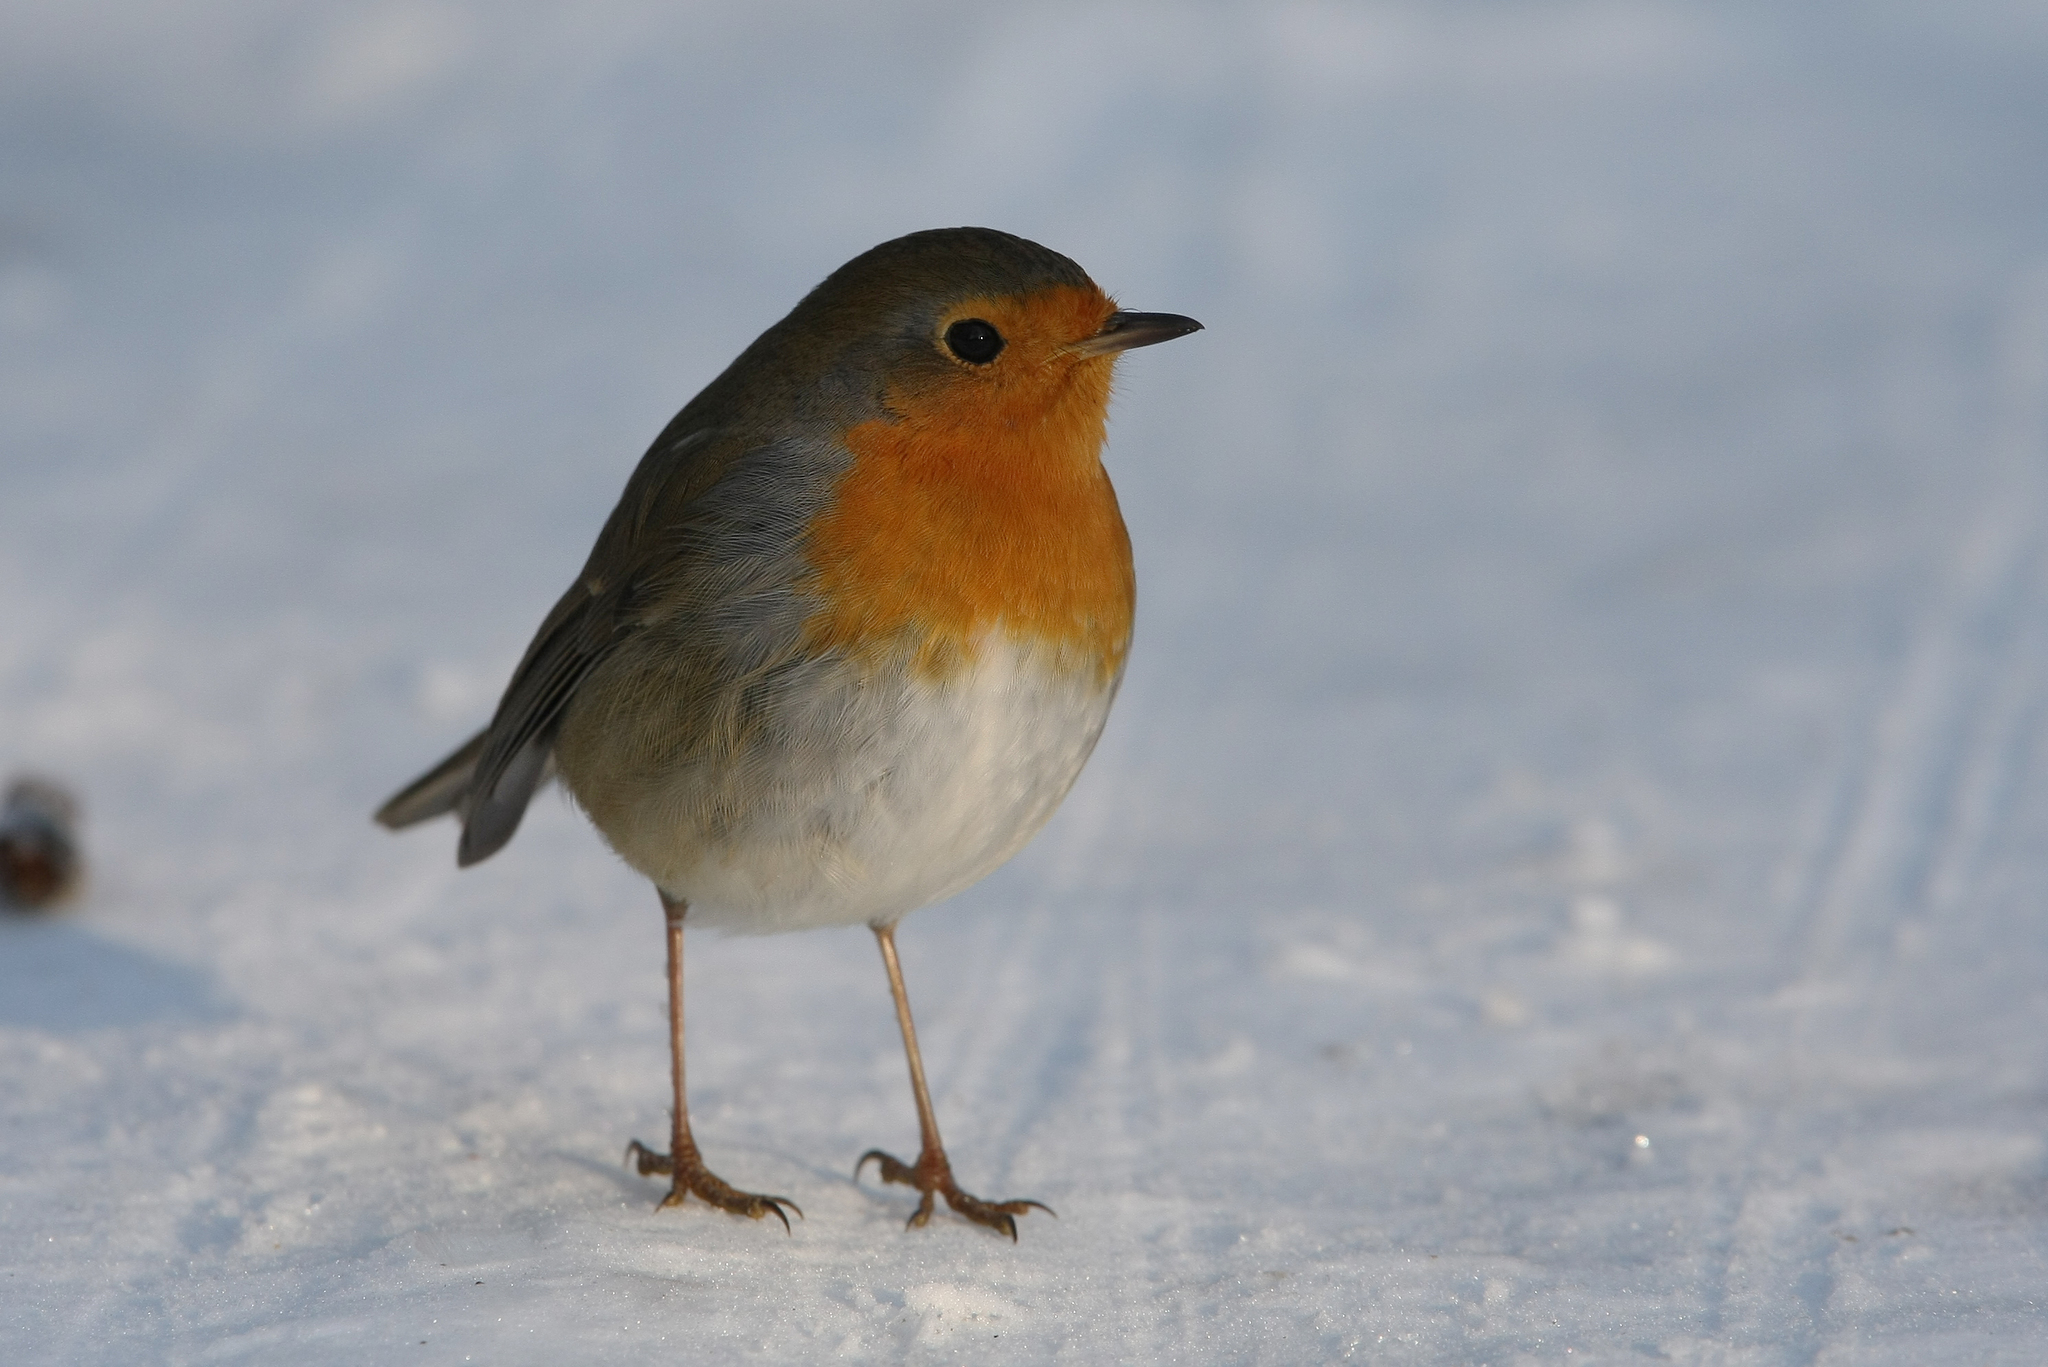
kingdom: Animalia
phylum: Chordata
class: Aves
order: Passeriformes
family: Muscicapidae
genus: Erithacus
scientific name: Erithacus rubecula
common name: European robin
